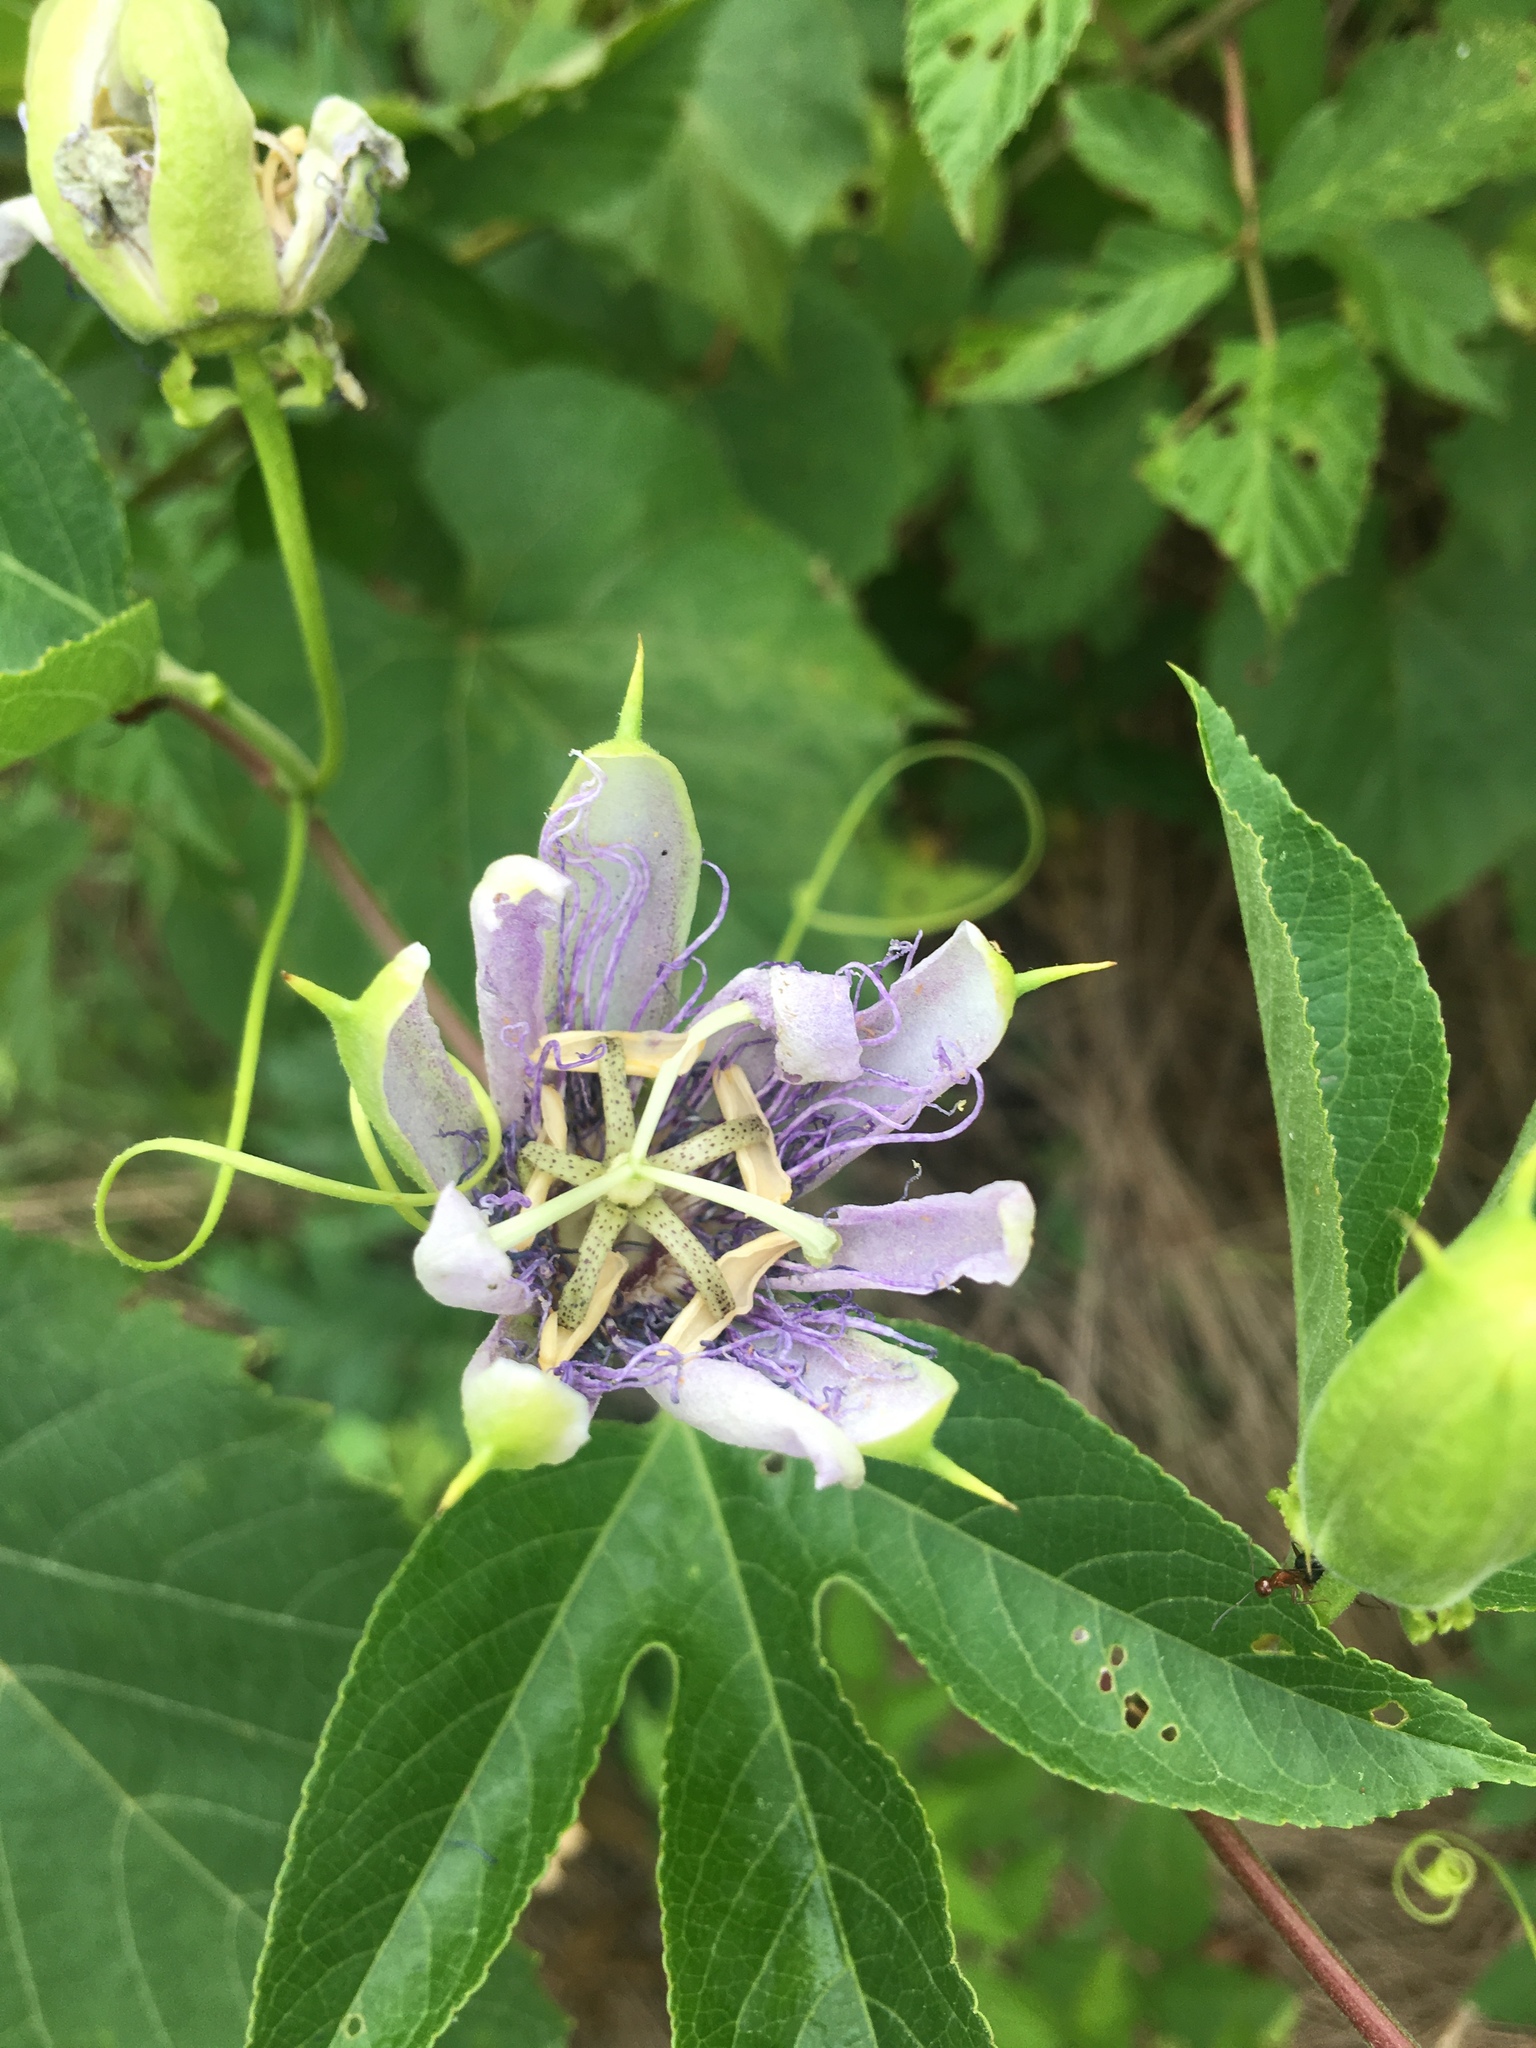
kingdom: Plantae
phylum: Tracheophyta
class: Magnoliopsida
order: Malpighiales
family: Passifloraceae
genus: Passiflora
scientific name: Passiflora incarnata
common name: Apricot-vine
